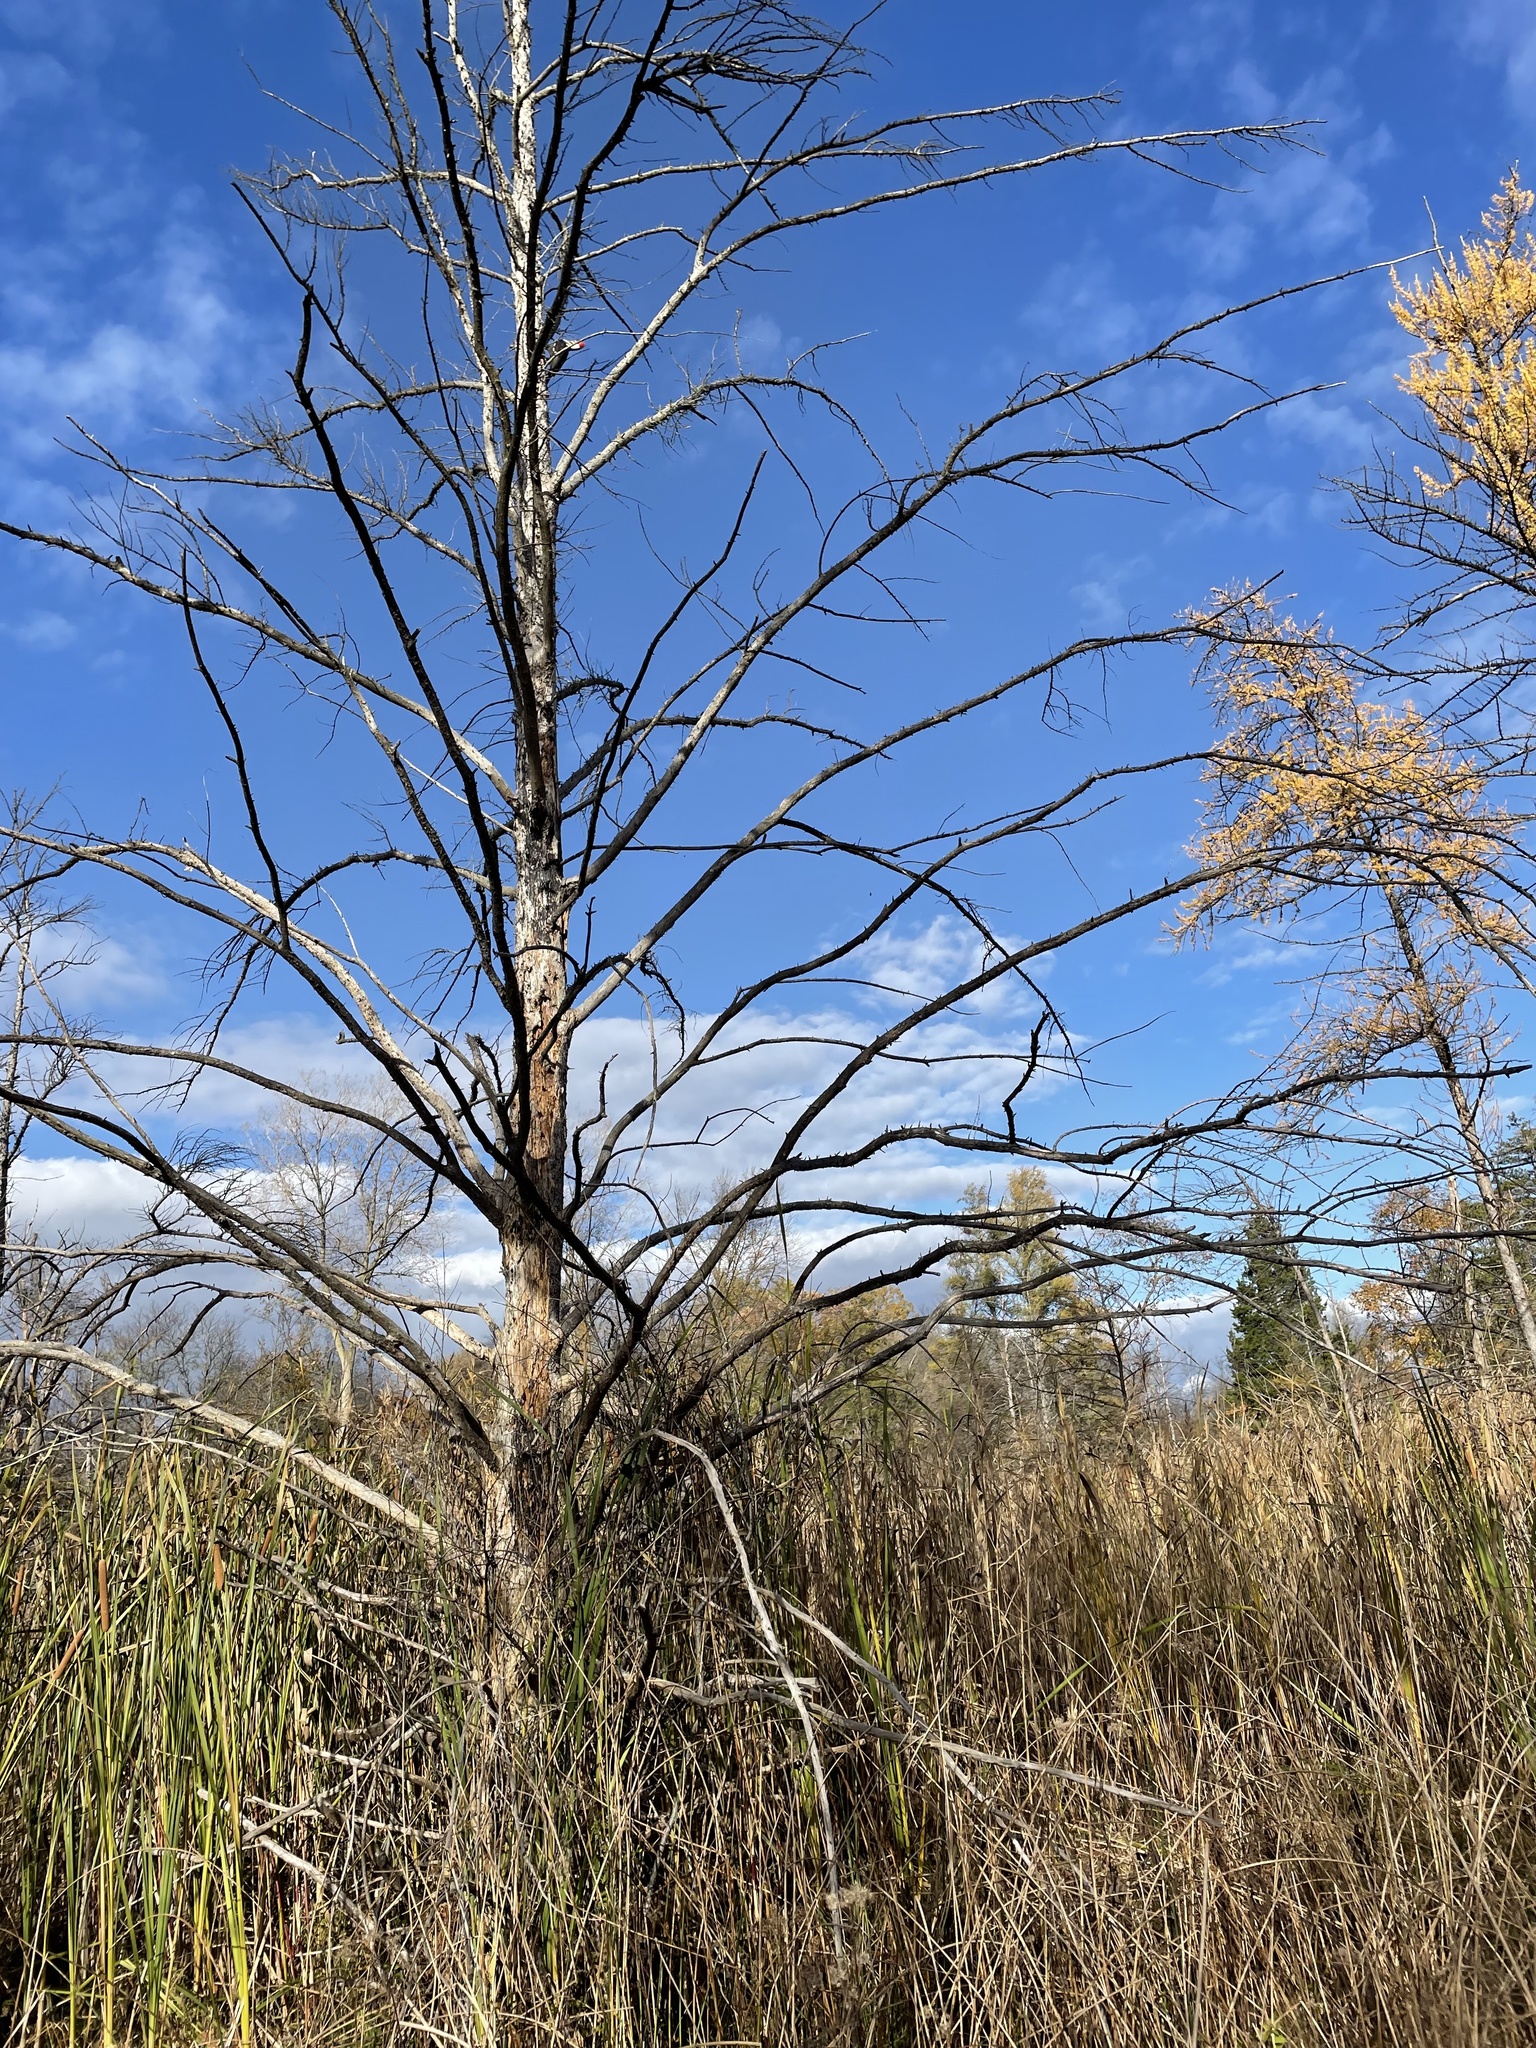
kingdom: Animalia
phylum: Chordata
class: Aves
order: Piciformes
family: Picidae
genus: Dryocopus
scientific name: Dryocopus pileatus
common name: Pileated woodpecker
